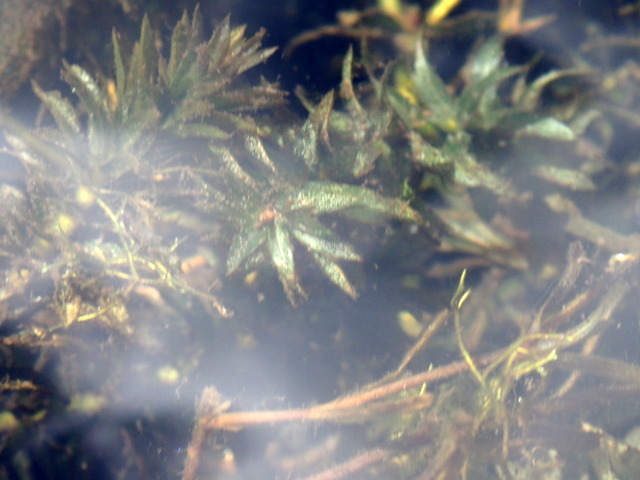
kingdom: Plantae
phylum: Tracheophyta
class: Liliopsida
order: Alismatales
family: Hydrocharitaceae
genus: Hydrilla
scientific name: Hydrilla verticillata
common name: Florida-elodea
